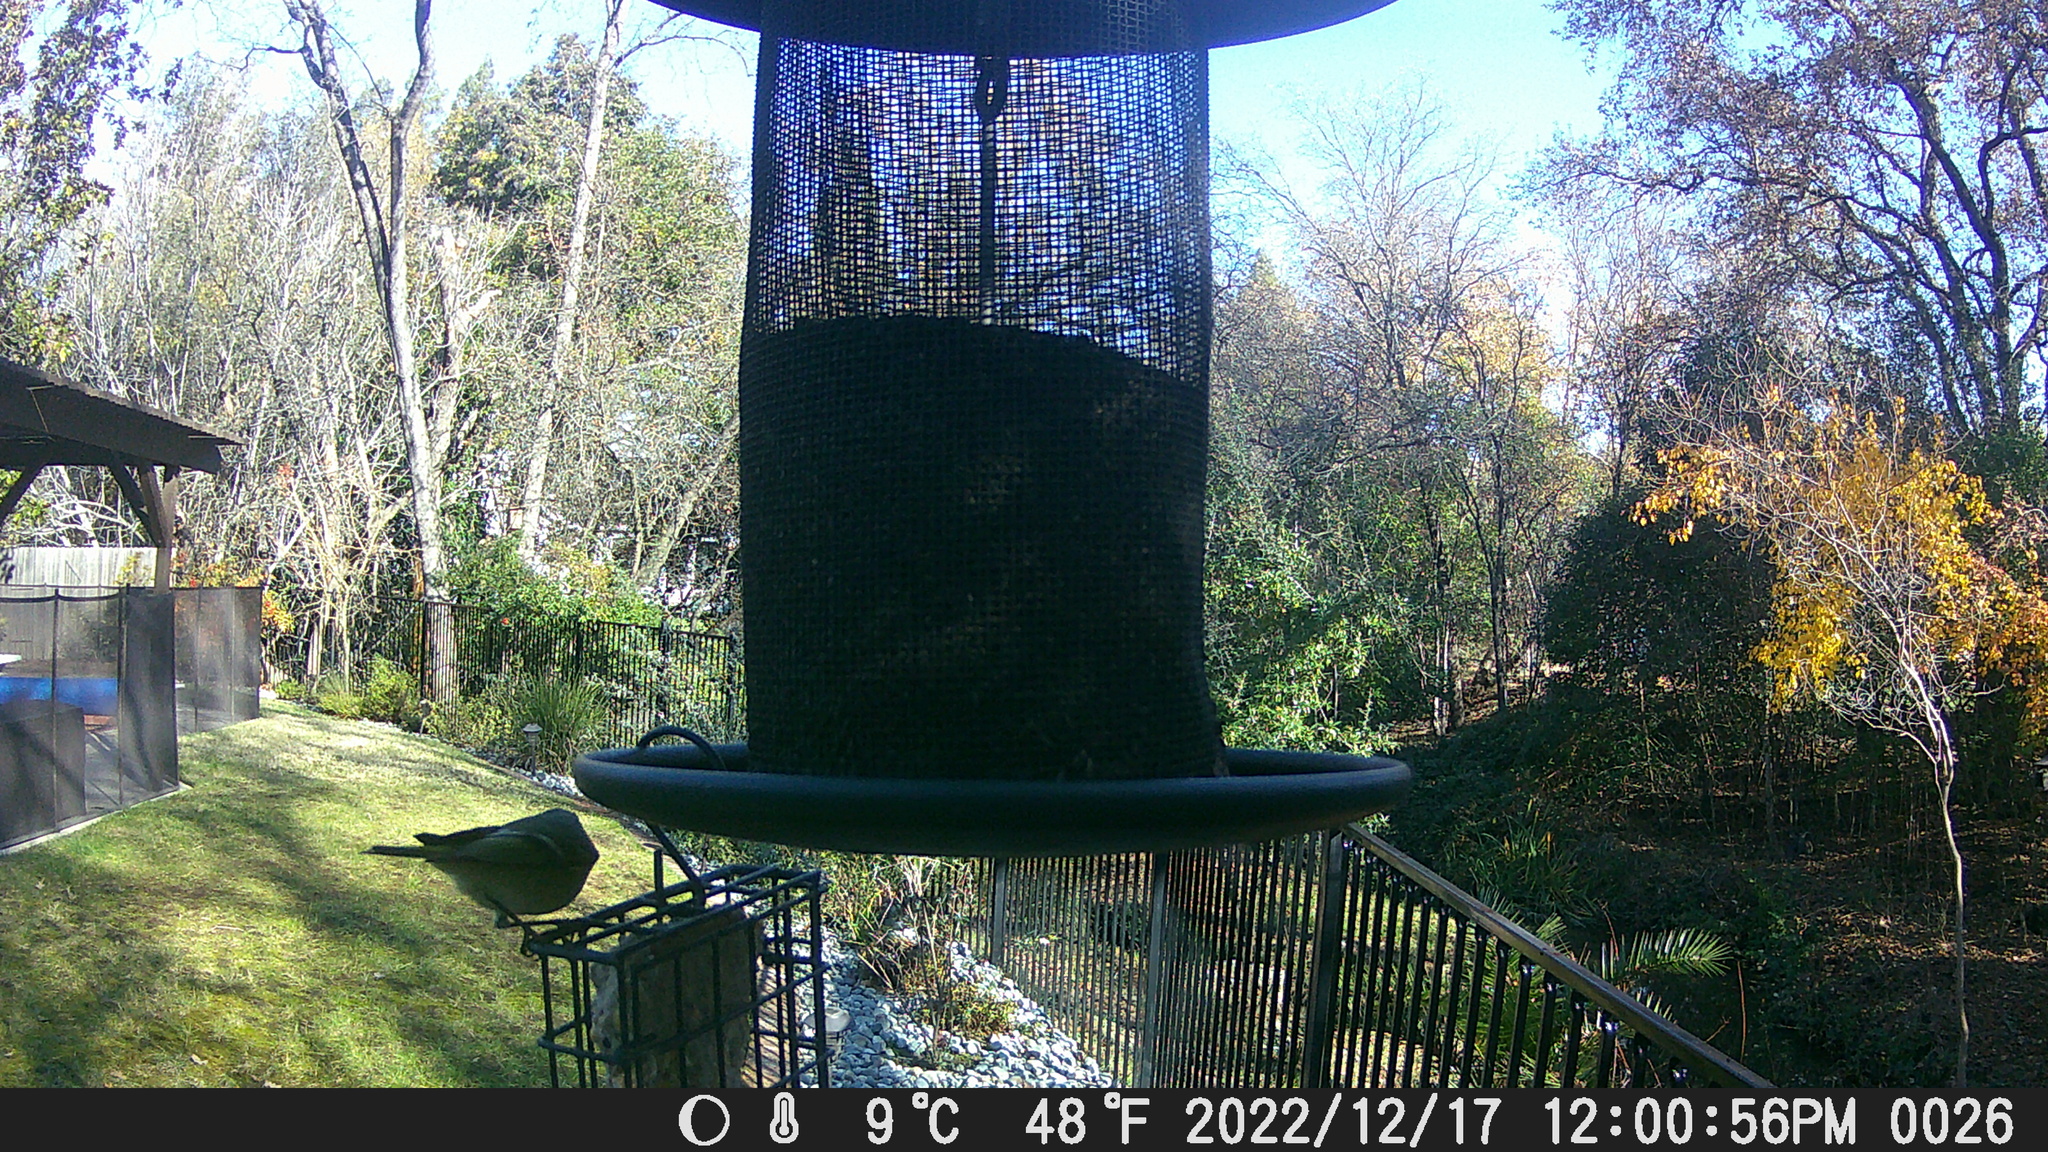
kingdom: Animalia
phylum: Chordata
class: Aves
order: Passeriformes
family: Regulidae
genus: Regulus
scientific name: Regulus calendula
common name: Ruby-crowned kinglet
